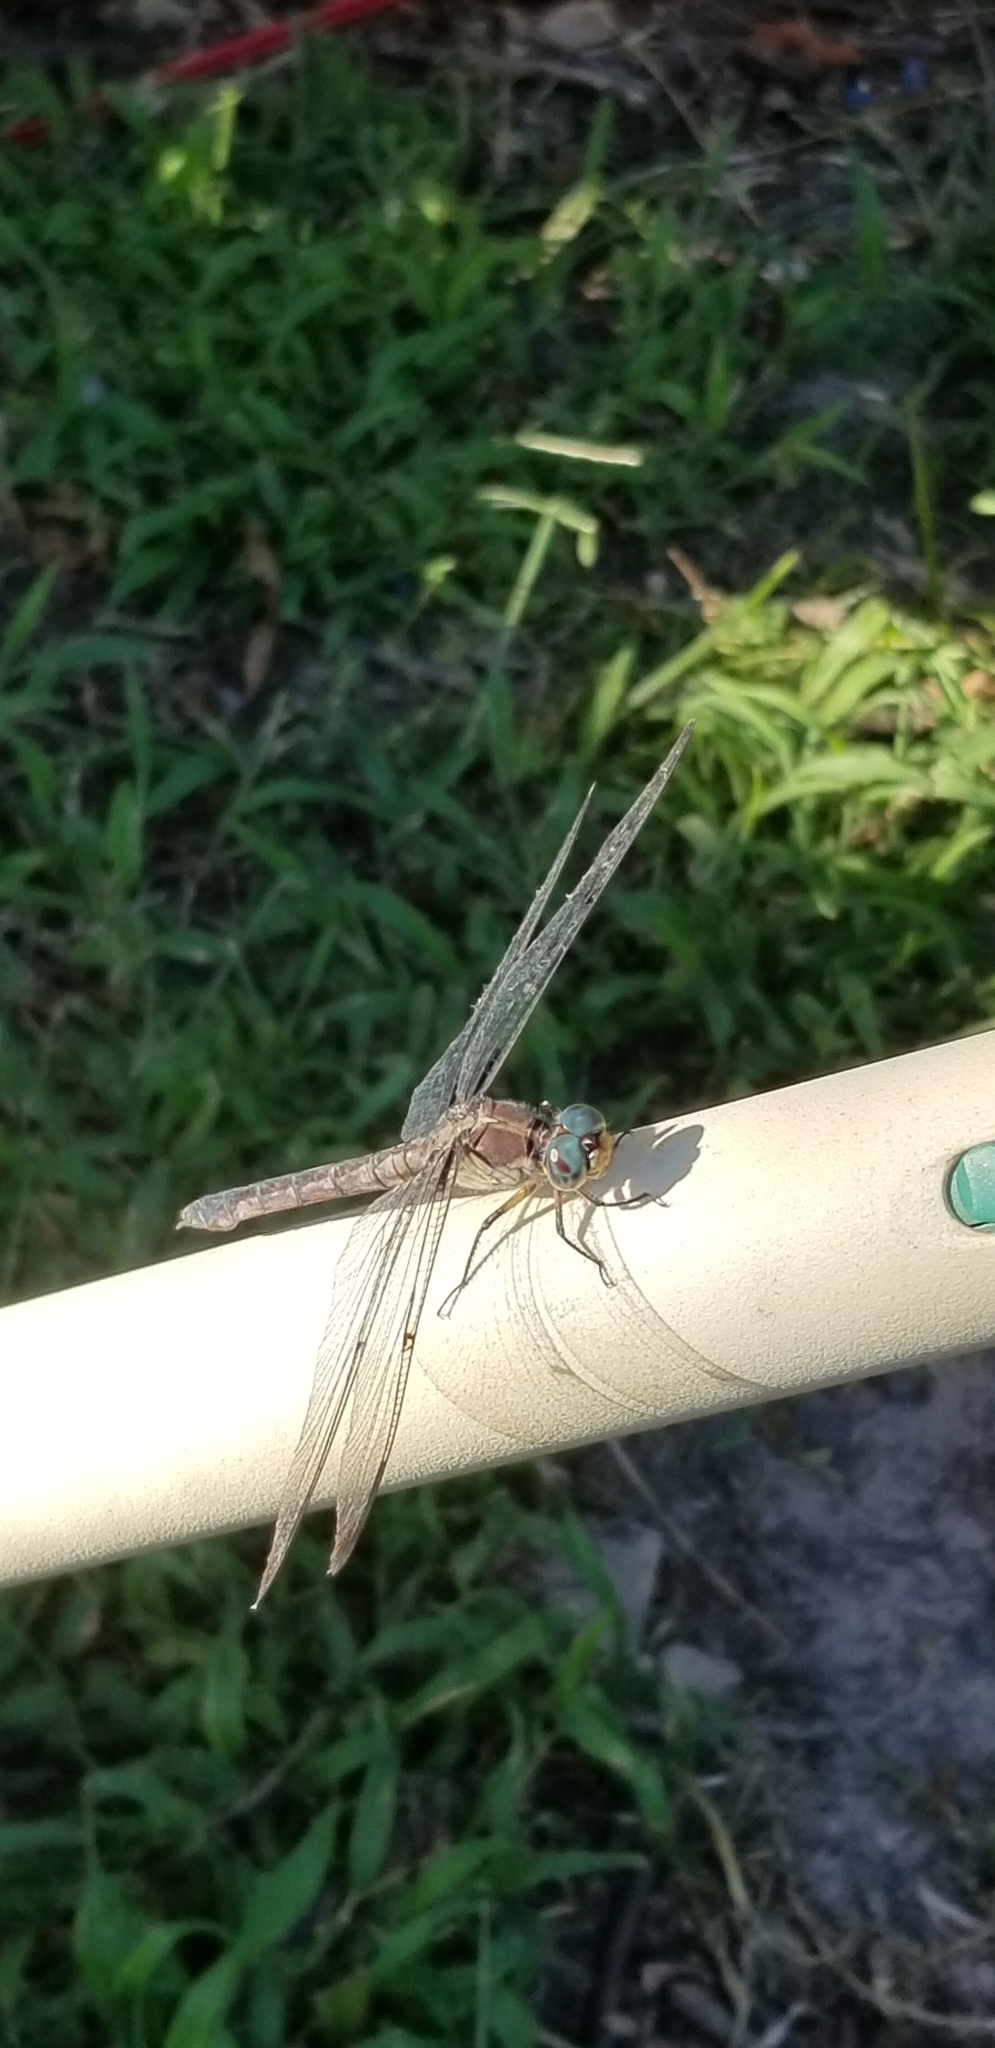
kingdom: Animalia
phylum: Arthropoda
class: Insecta
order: Odonata
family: Libellulidae
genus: Libellula
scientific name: Libellula vibrans
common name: Great blue skimmer
